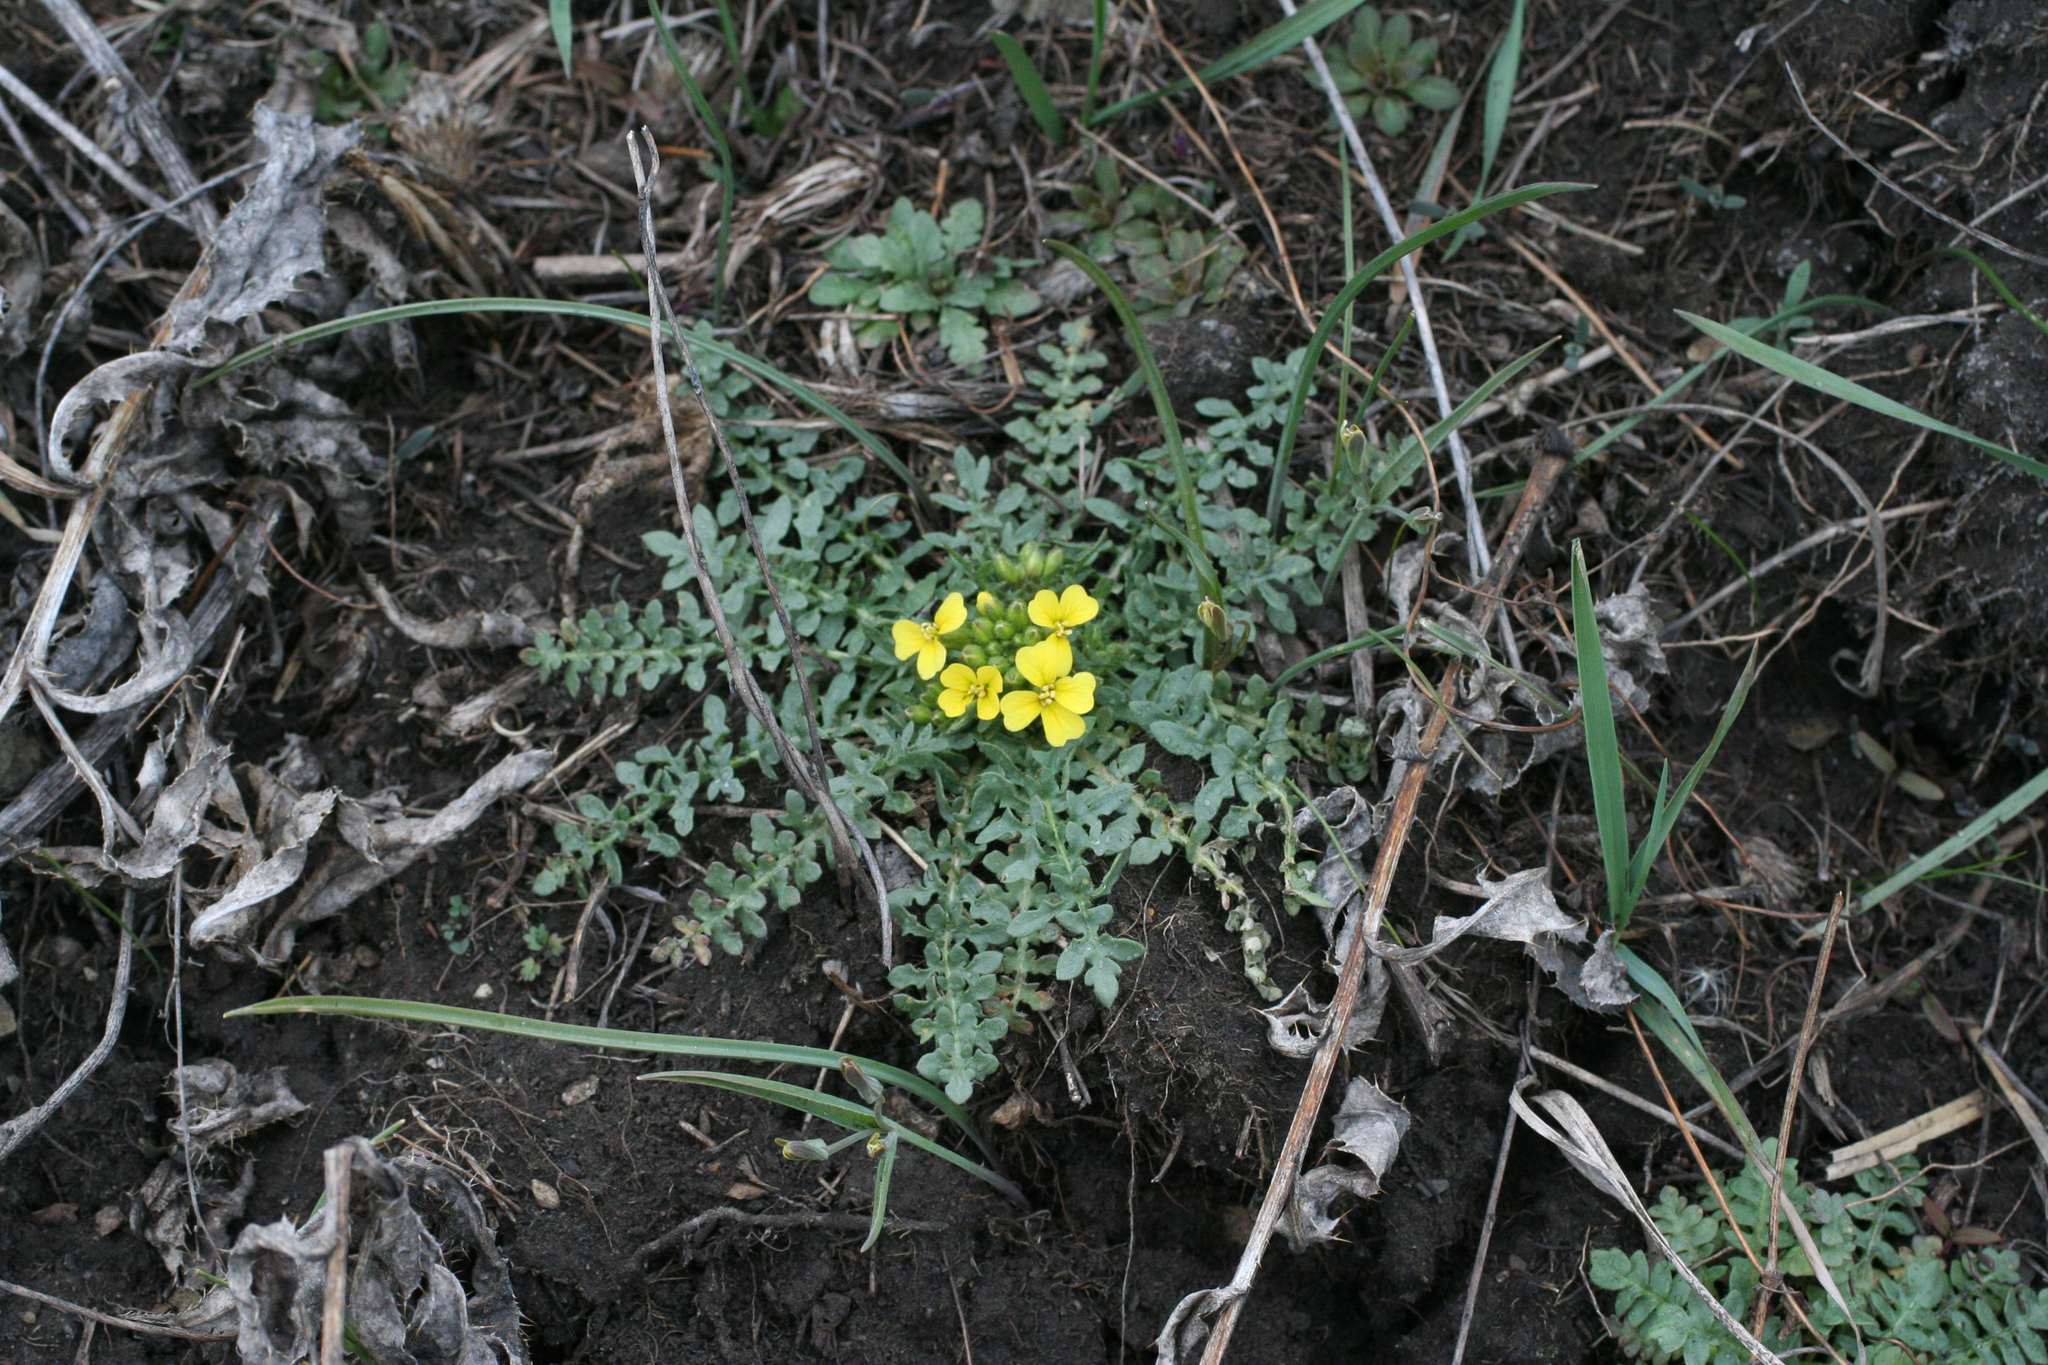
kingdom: Plantae
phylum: Tracheophyta
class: Magnoliopsida
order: Brassicales
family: Brassicaceae
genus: Chorispora
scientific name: Chorispora sibirica
